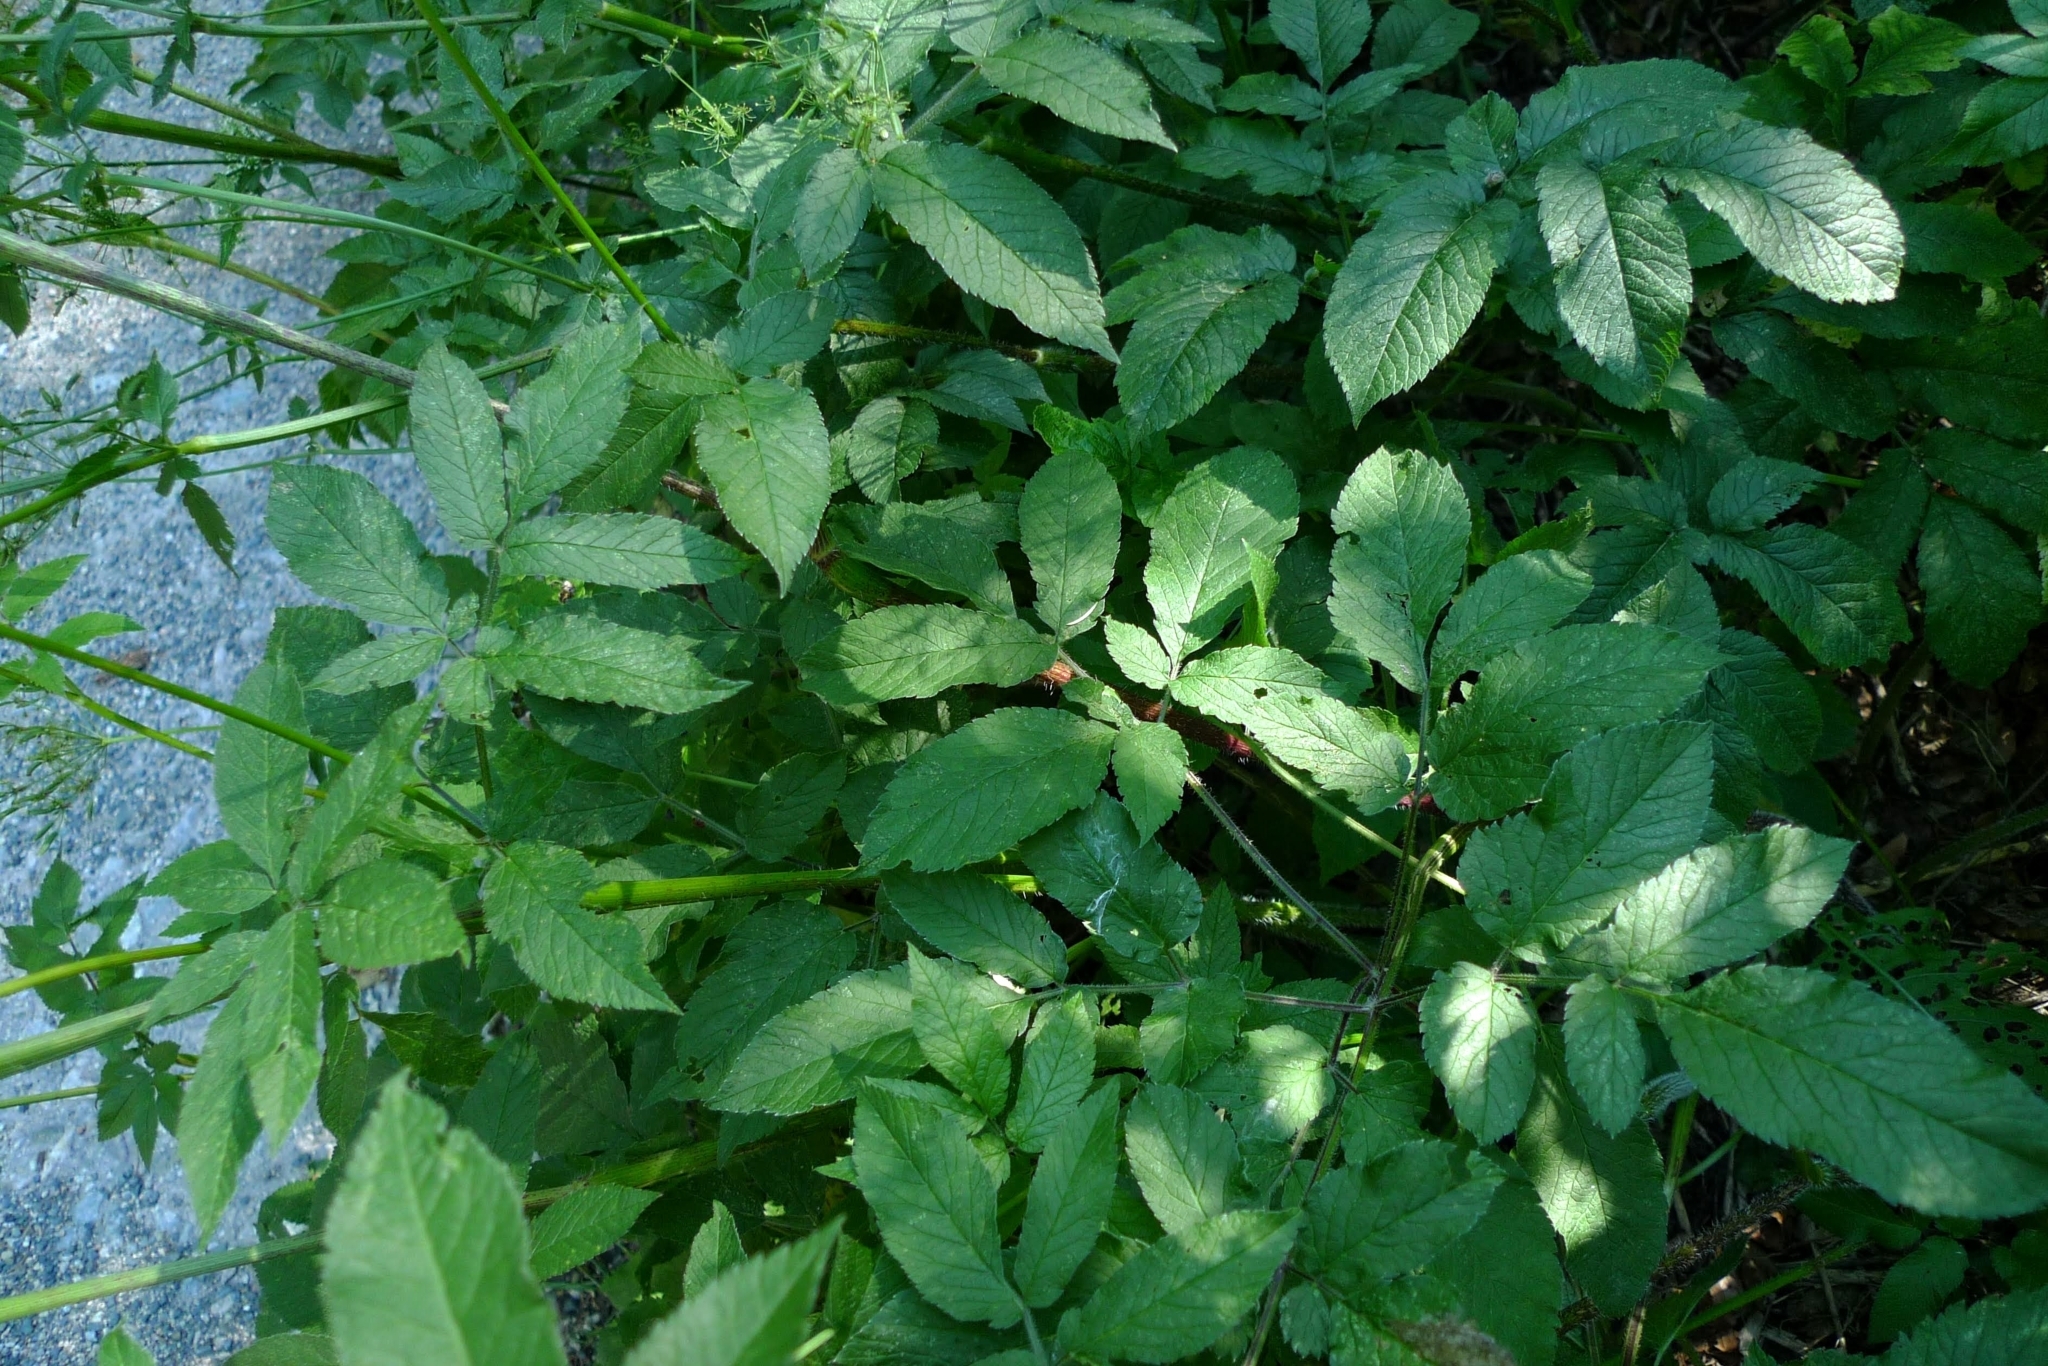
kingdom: Plantae
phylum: Tracheophyta
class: Magnoliopsida
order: Apiales
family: Apiaceae
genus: Chaerophyllum
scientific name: Chaerophyllum aromaticum
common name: Broadleaf chervil
